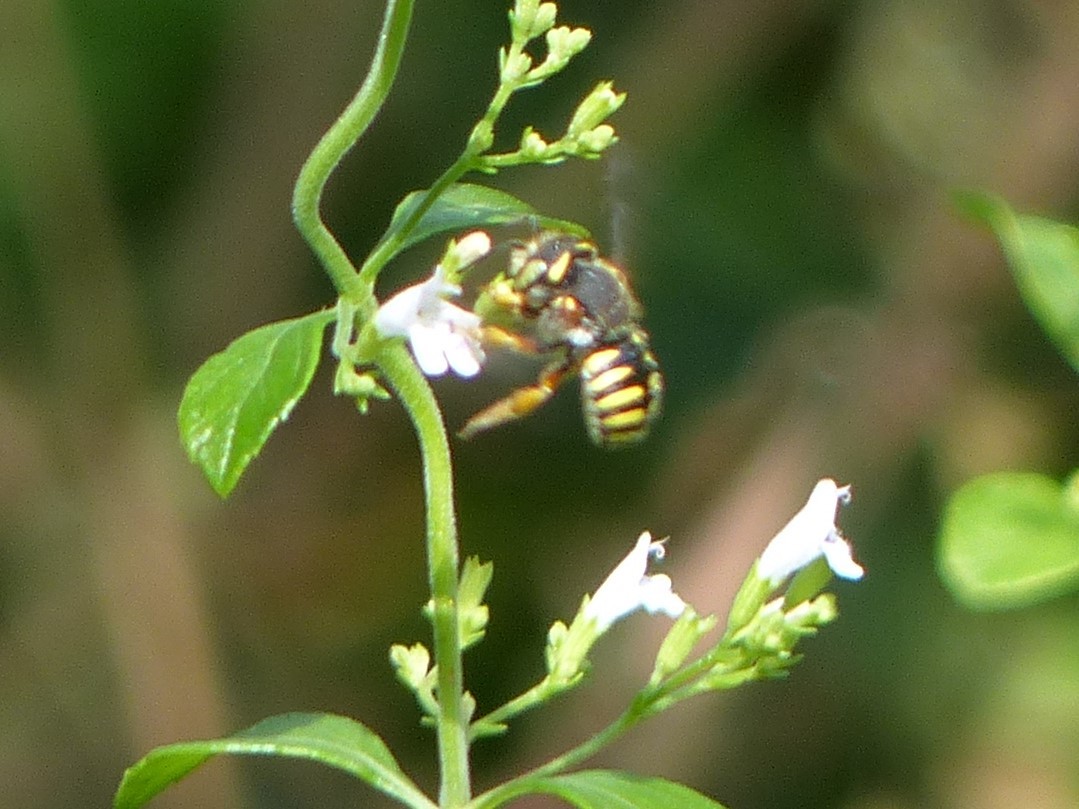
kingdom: Animalia
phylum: Arthropoda
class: Insecta
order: Hymenoptera
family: Megachilidae
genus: Anthidium
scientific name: Anthidium oblongatum
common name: Oblong wool carder bee
